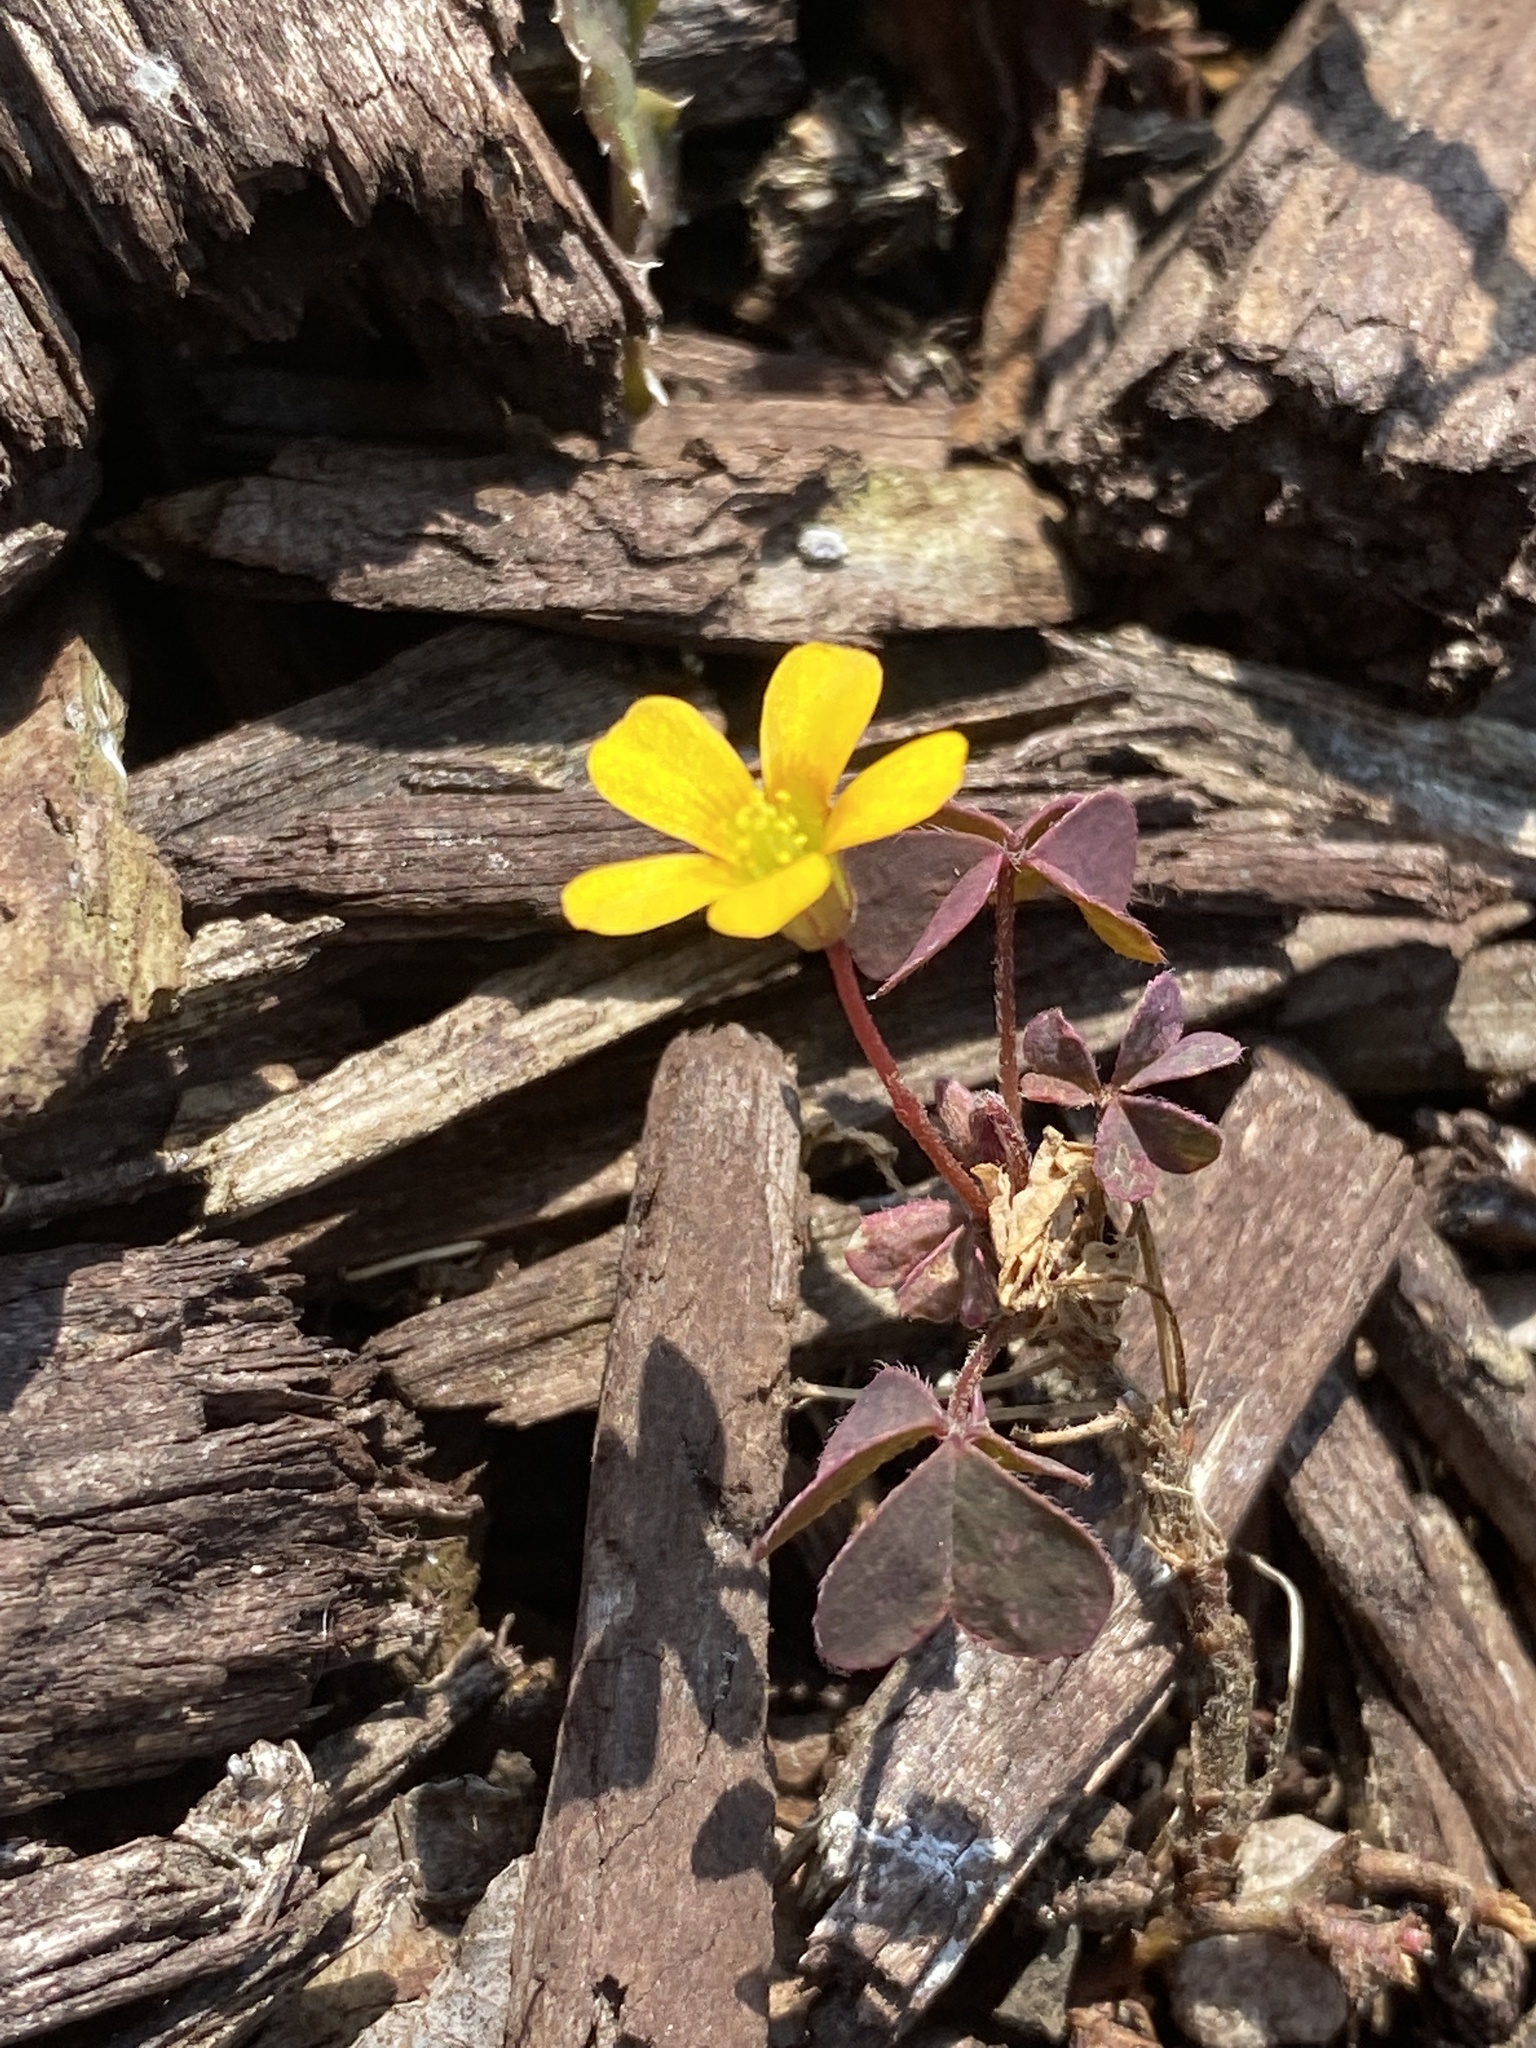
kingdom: Plantae
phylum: Tracheophyta
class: Magnoliopsida
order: Oxalidales
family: Oxalidaceae
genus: Oxalis
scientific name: Oxalis corniculata
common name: Procumbent yellow-sorrel
